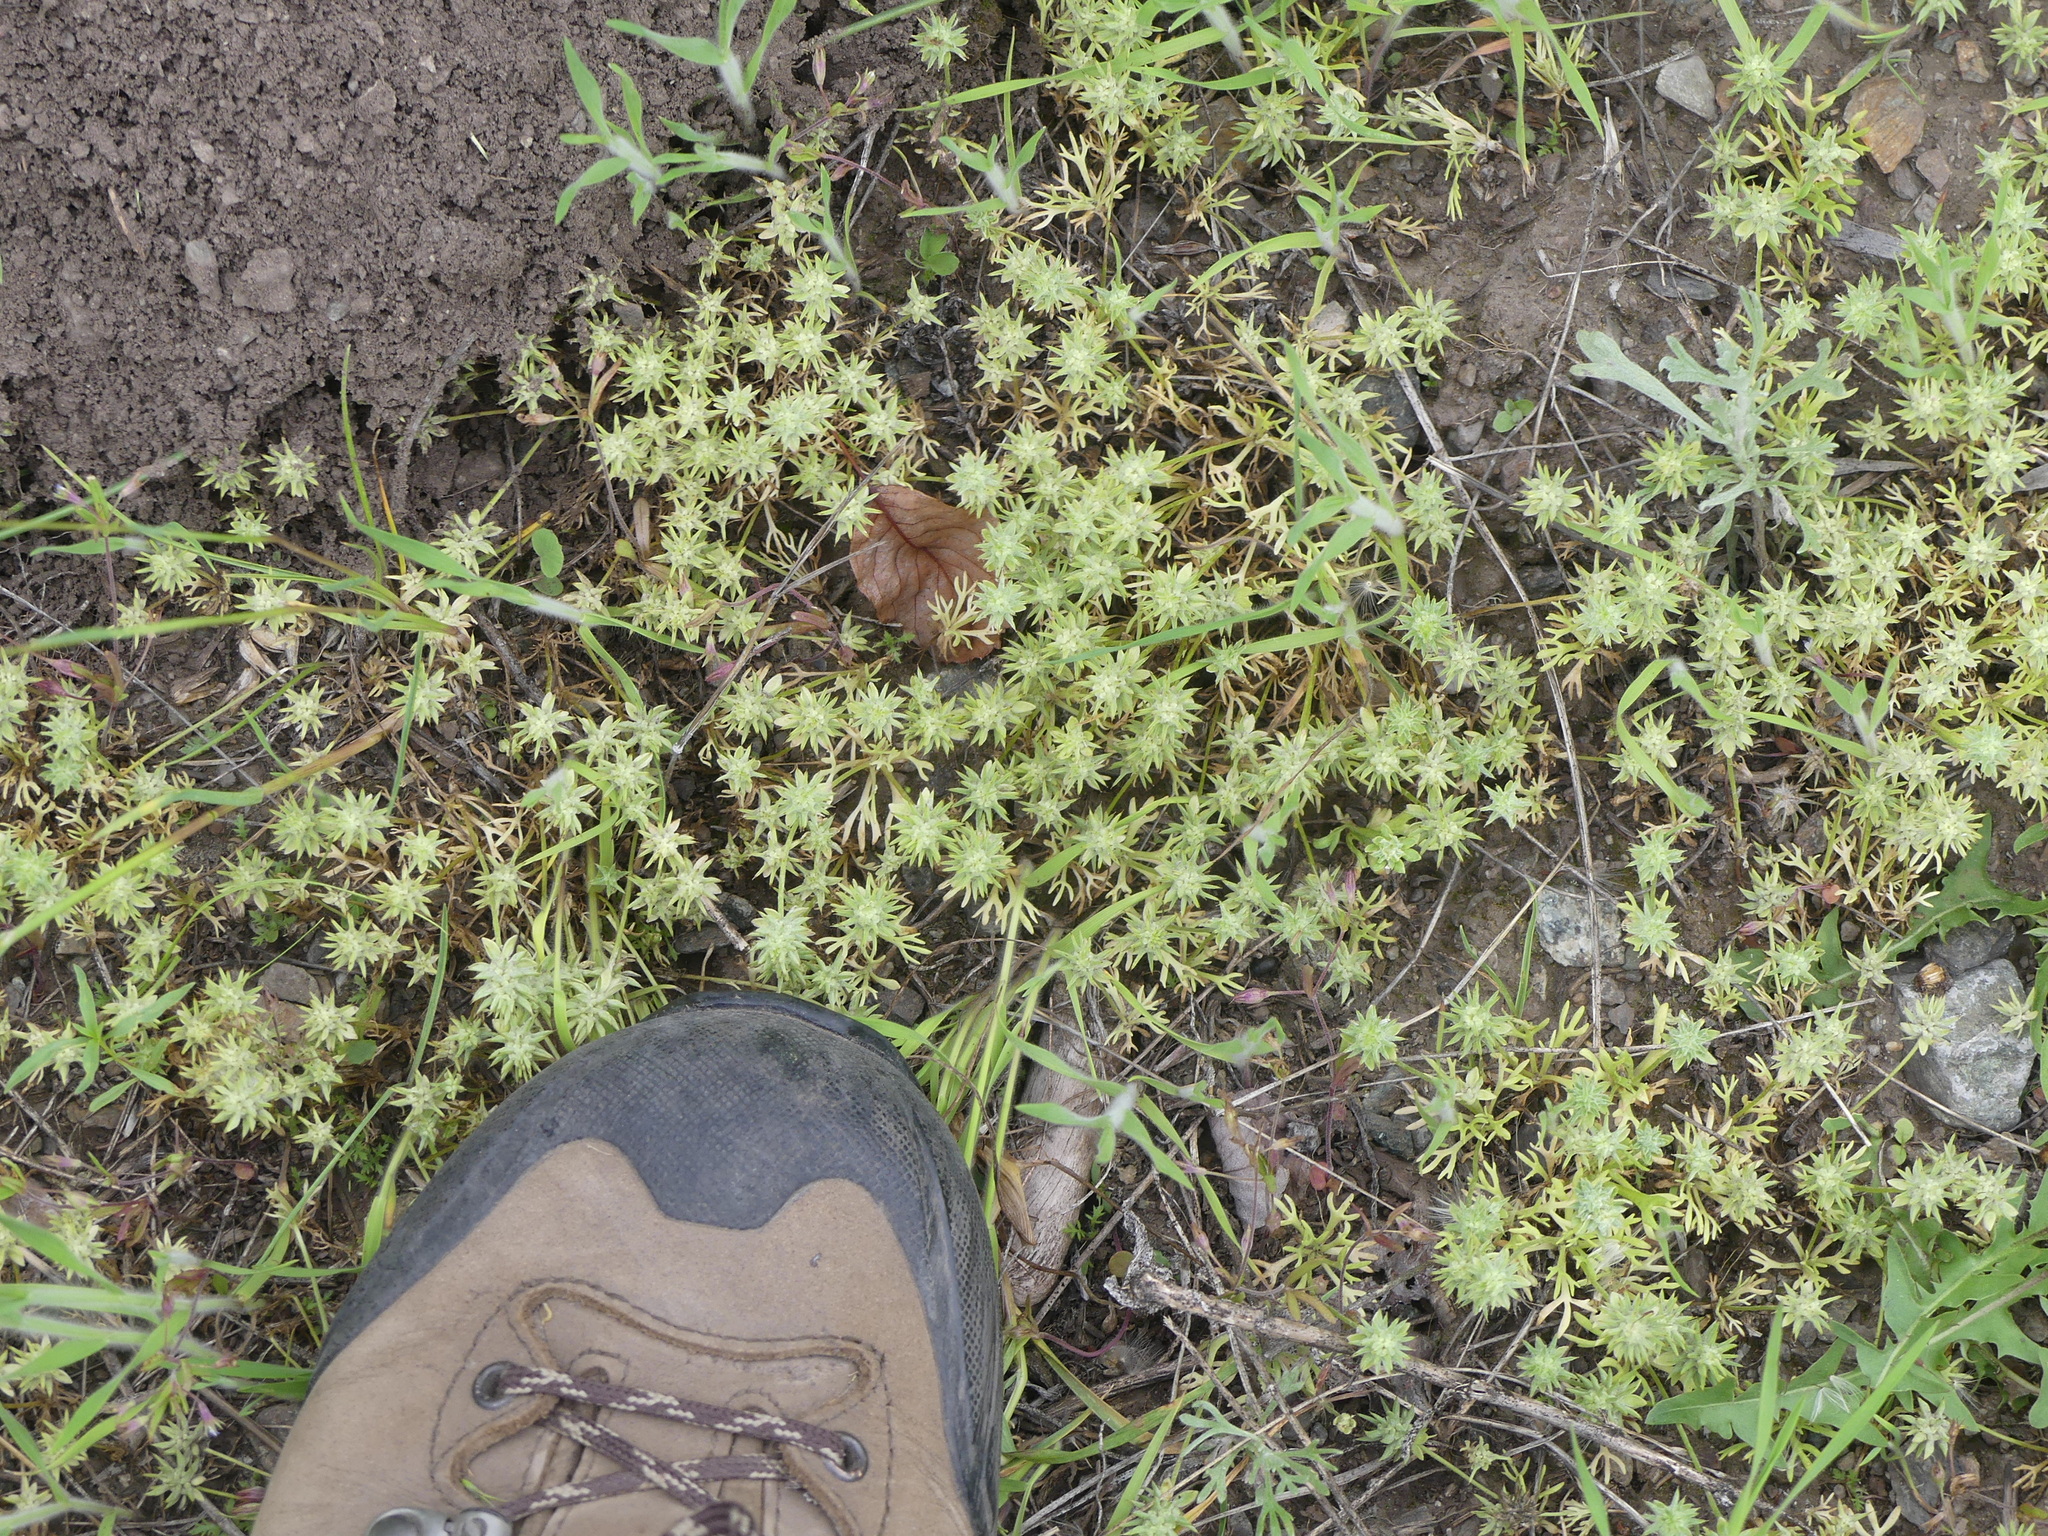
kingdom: Plantae
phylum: Tracheophyta
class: Magnoliopsida
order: Ranunculales
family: Ranunculaceae
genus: Ceratocephala
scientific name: Ceratocephala orthoceras
